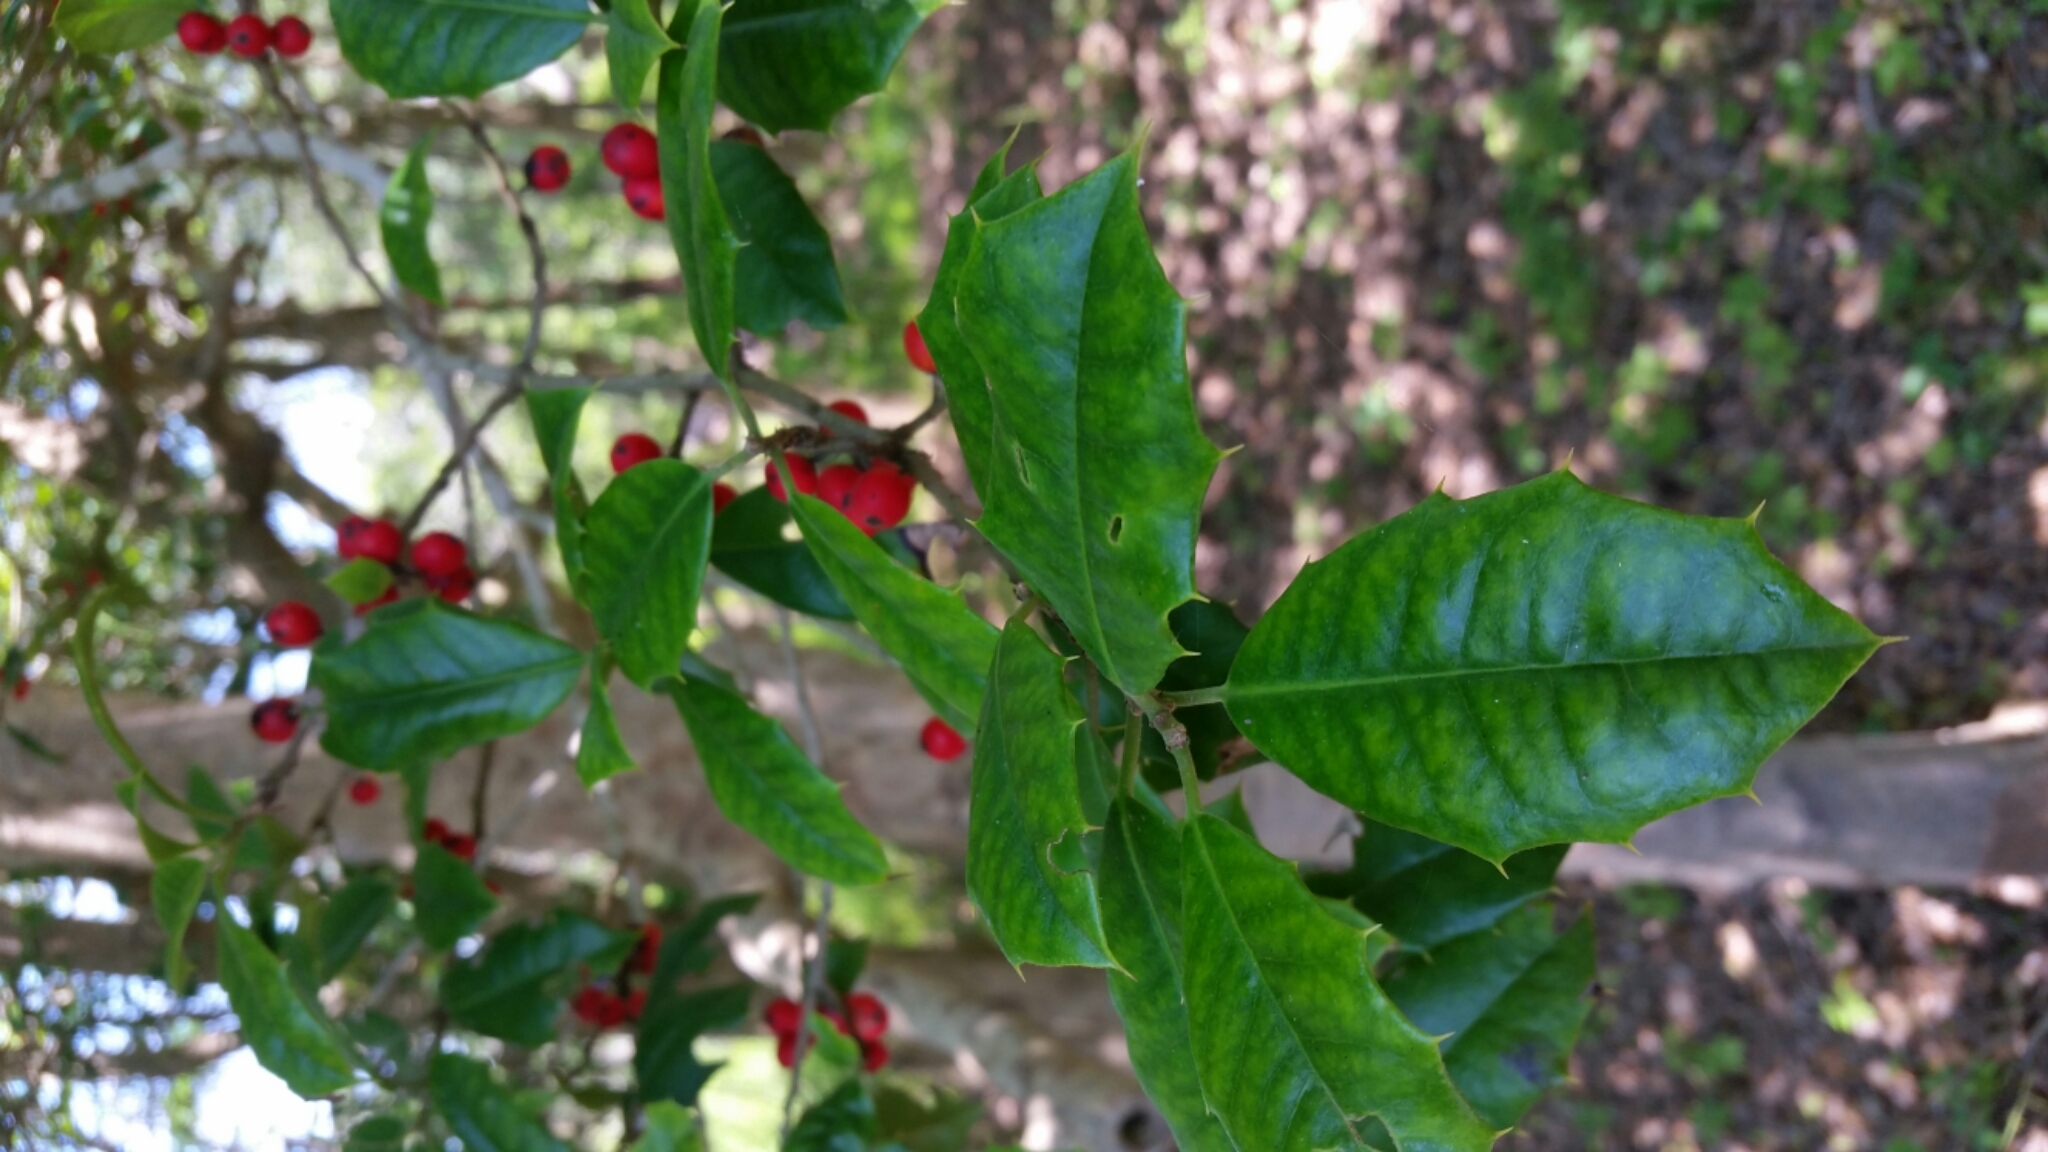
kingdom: Plantae
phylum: Tracheophyta
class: Magnoliopsida
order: Aquifoliales
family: Aquifoliaceae
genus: Ilex
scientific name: Ilex opaca
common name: American holly
